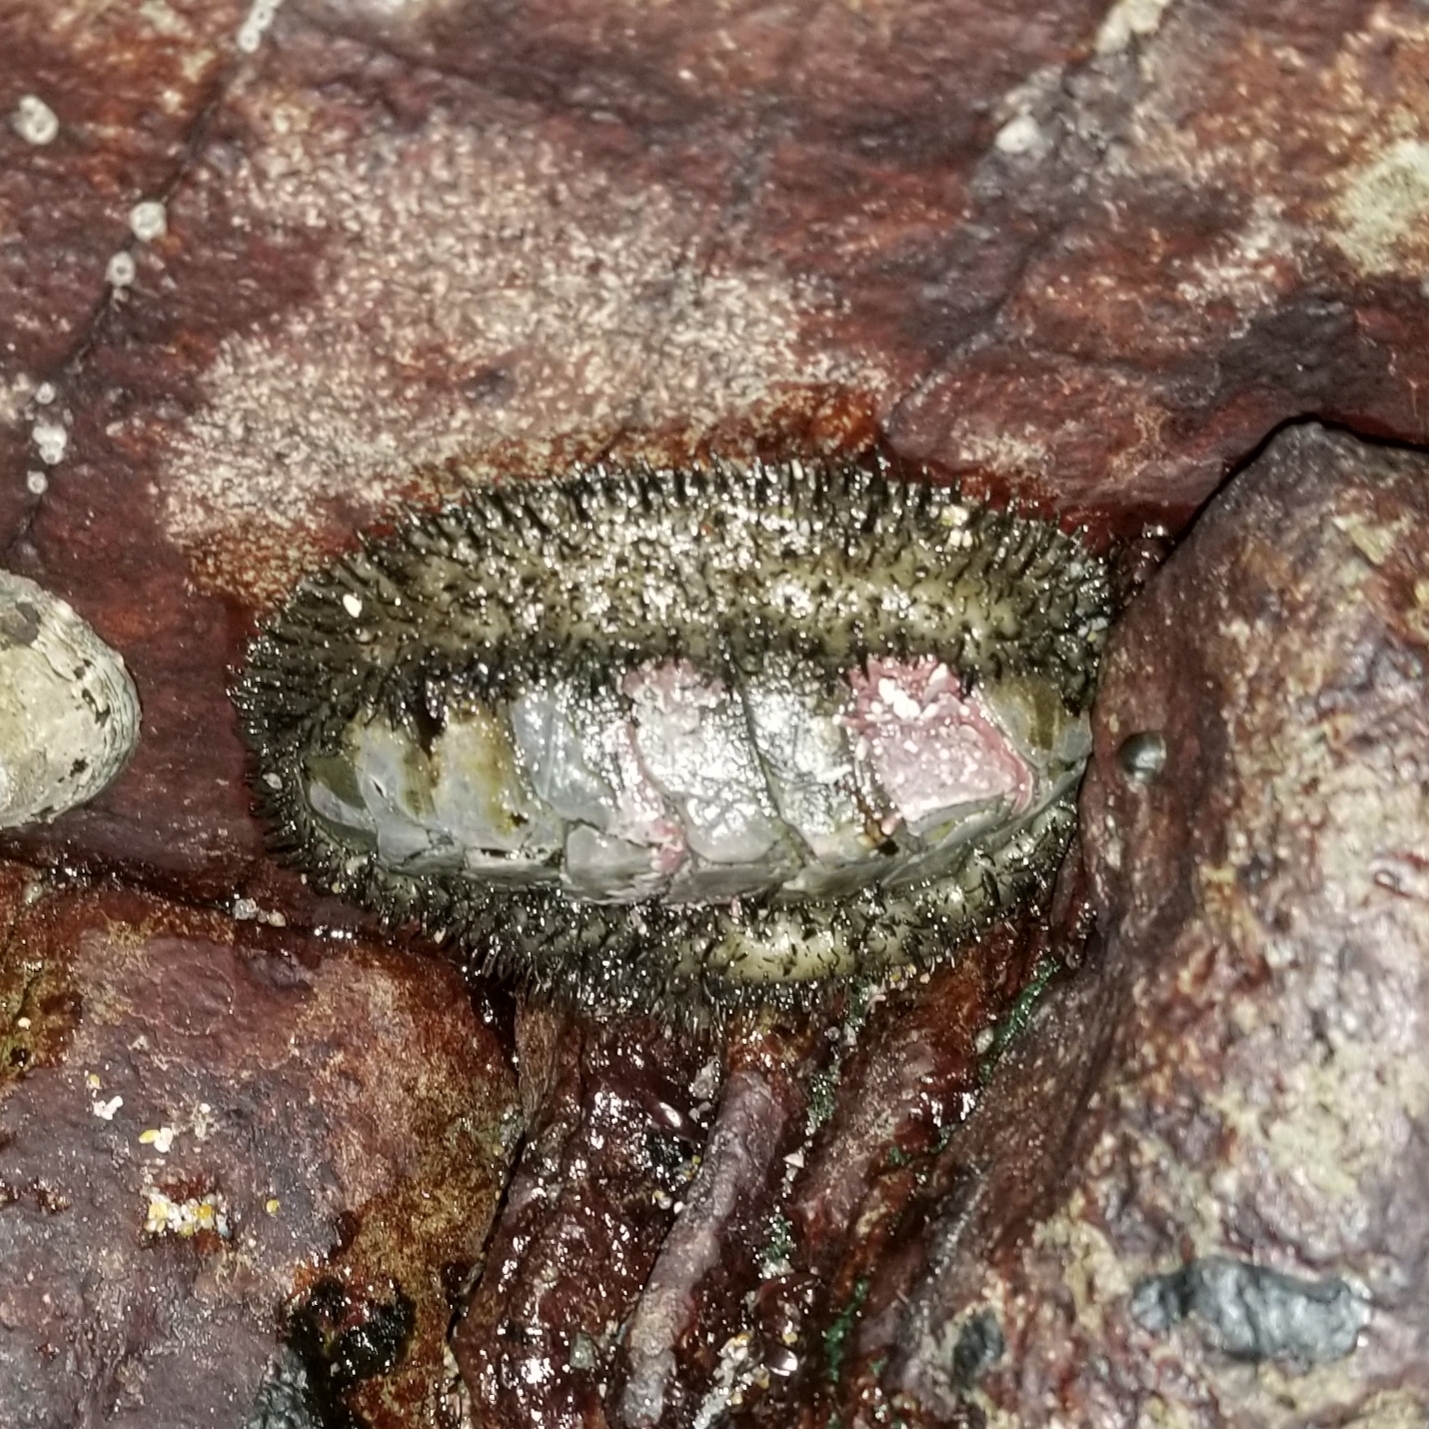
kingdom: Animalia
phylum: Mollusca
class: Polyplacophora
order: Chitonida
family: Mopaliidae
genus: Mopalia
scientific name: Mopalia muscosa
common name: Mossy chiton
